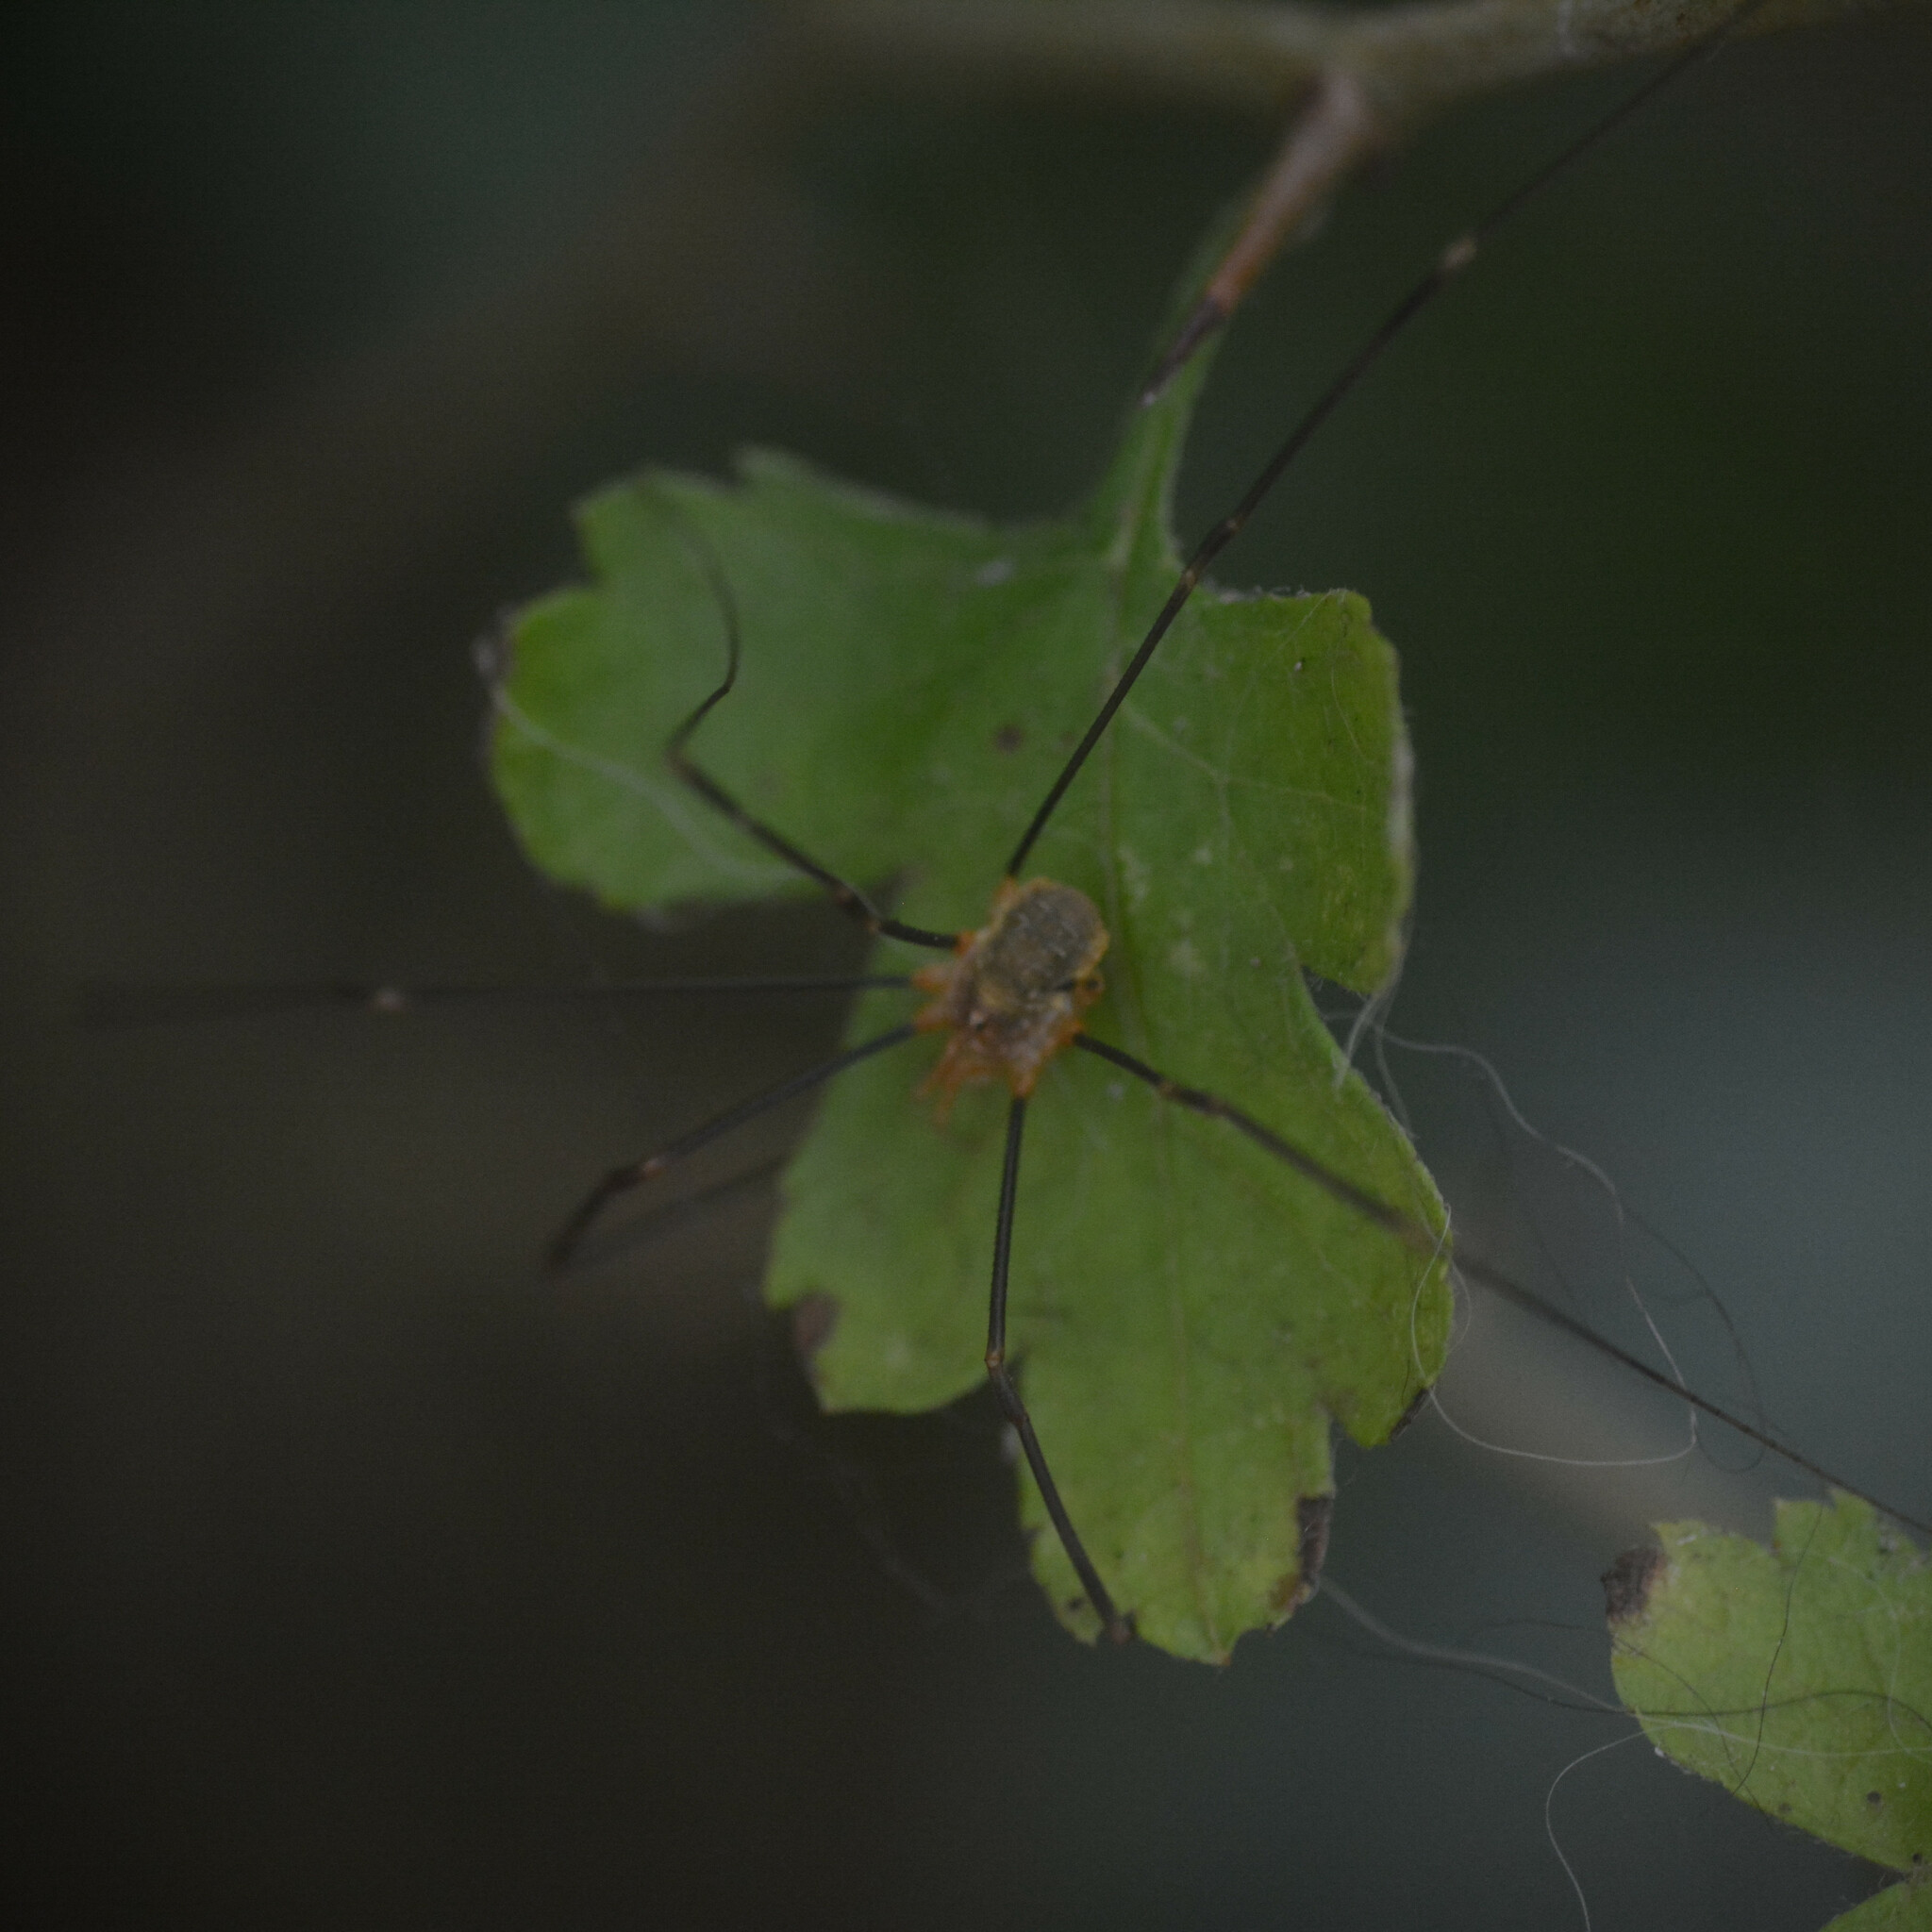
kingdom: Animalia
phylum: Arthropoda
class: Arachnida
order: Opiliones
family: Phalangiidae
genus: Opilio
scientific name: Opilio canestrinii
